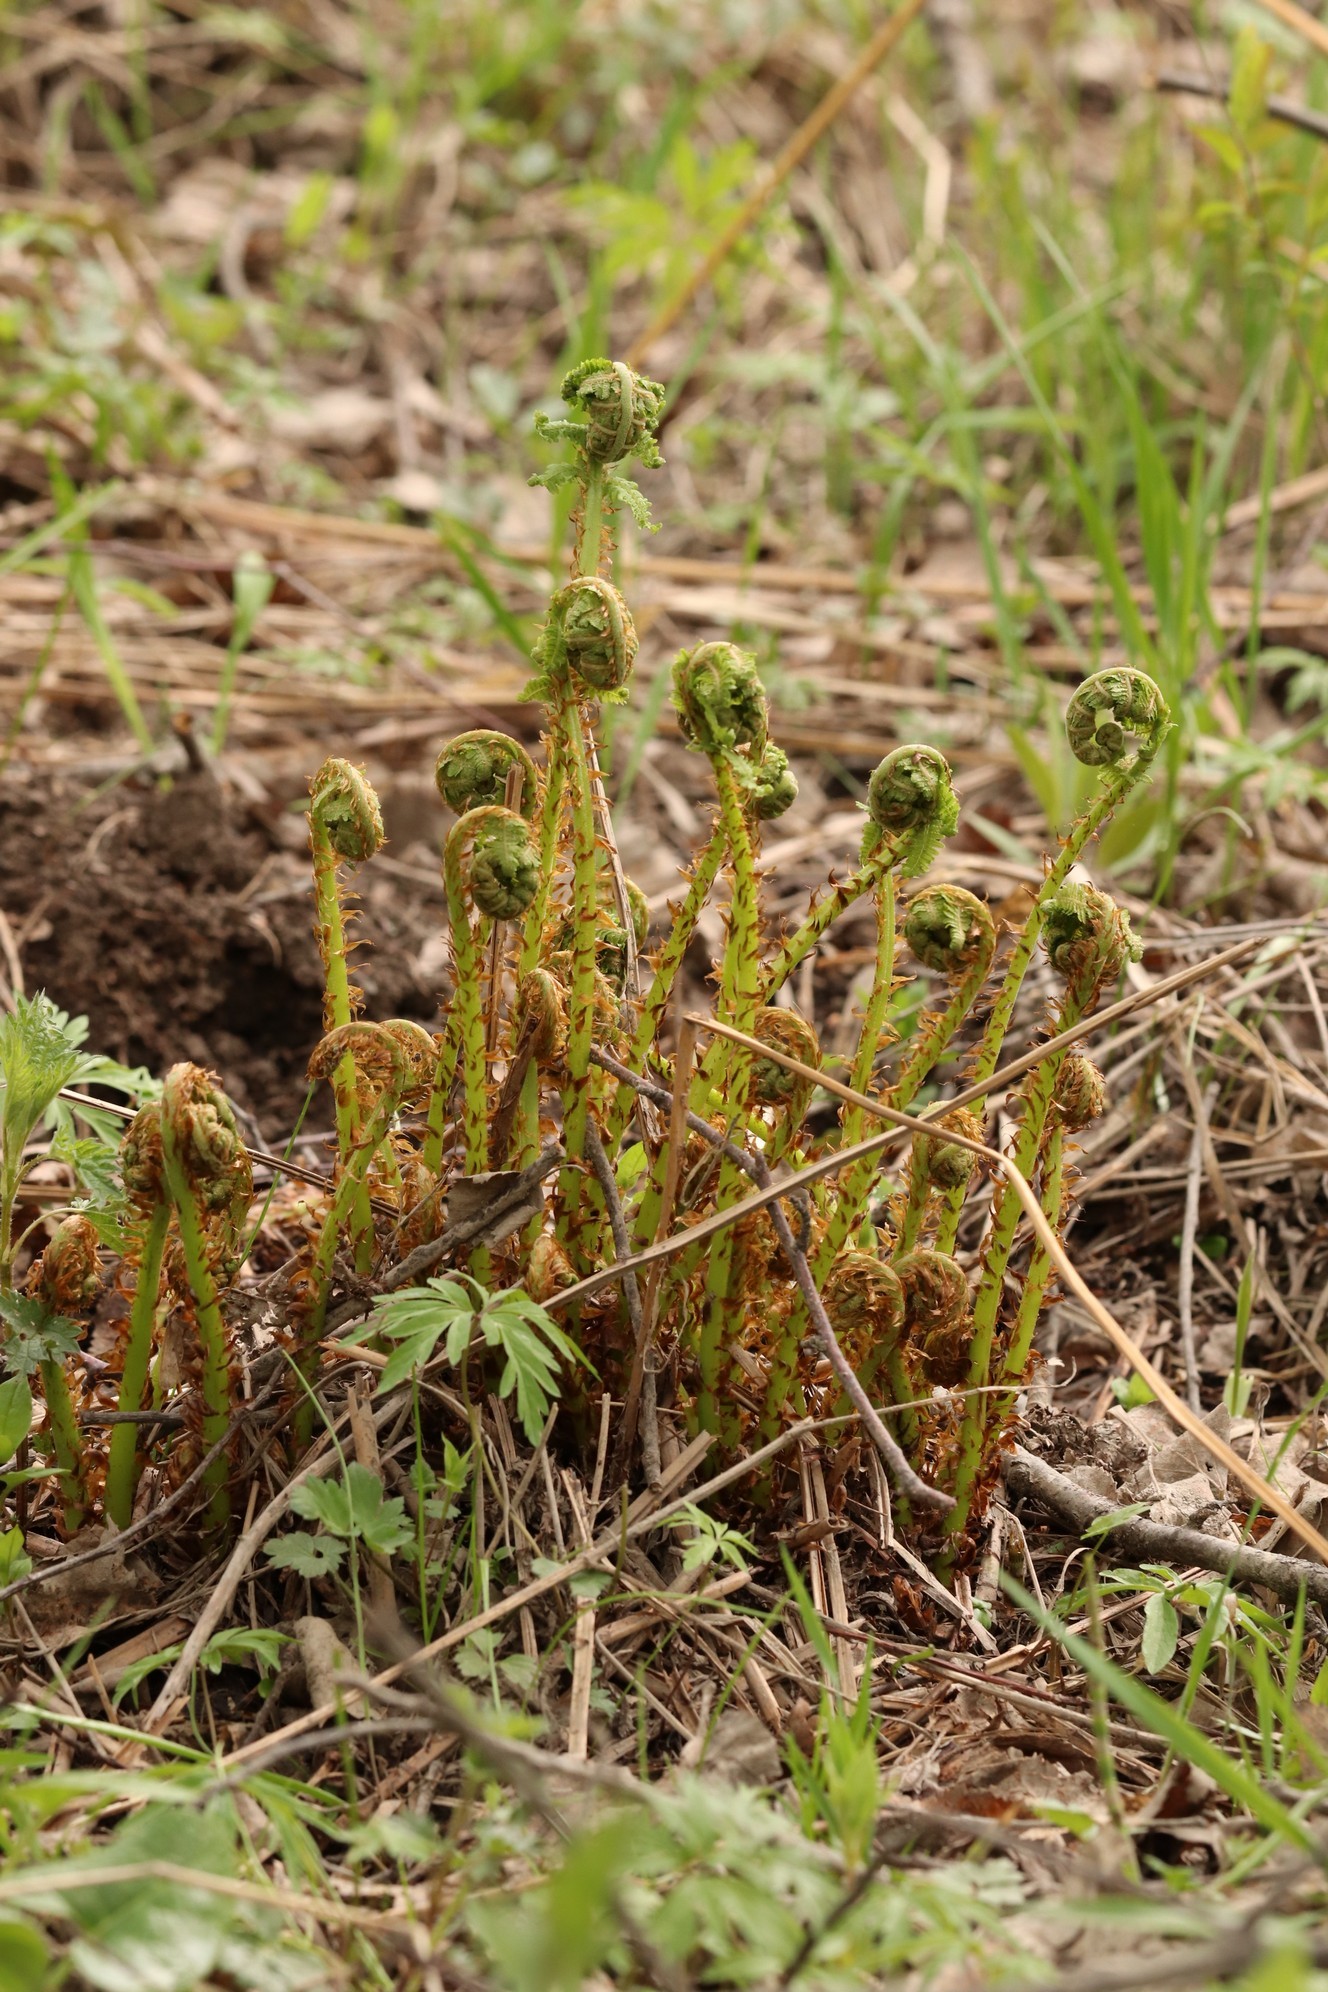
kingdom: Plantae
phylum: Tracheophyta
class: Polypodiopsida
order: Polypodiales
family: Athyriaceae
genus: Athyrium
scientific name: Athyrium filix-femina
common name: Lady fern
